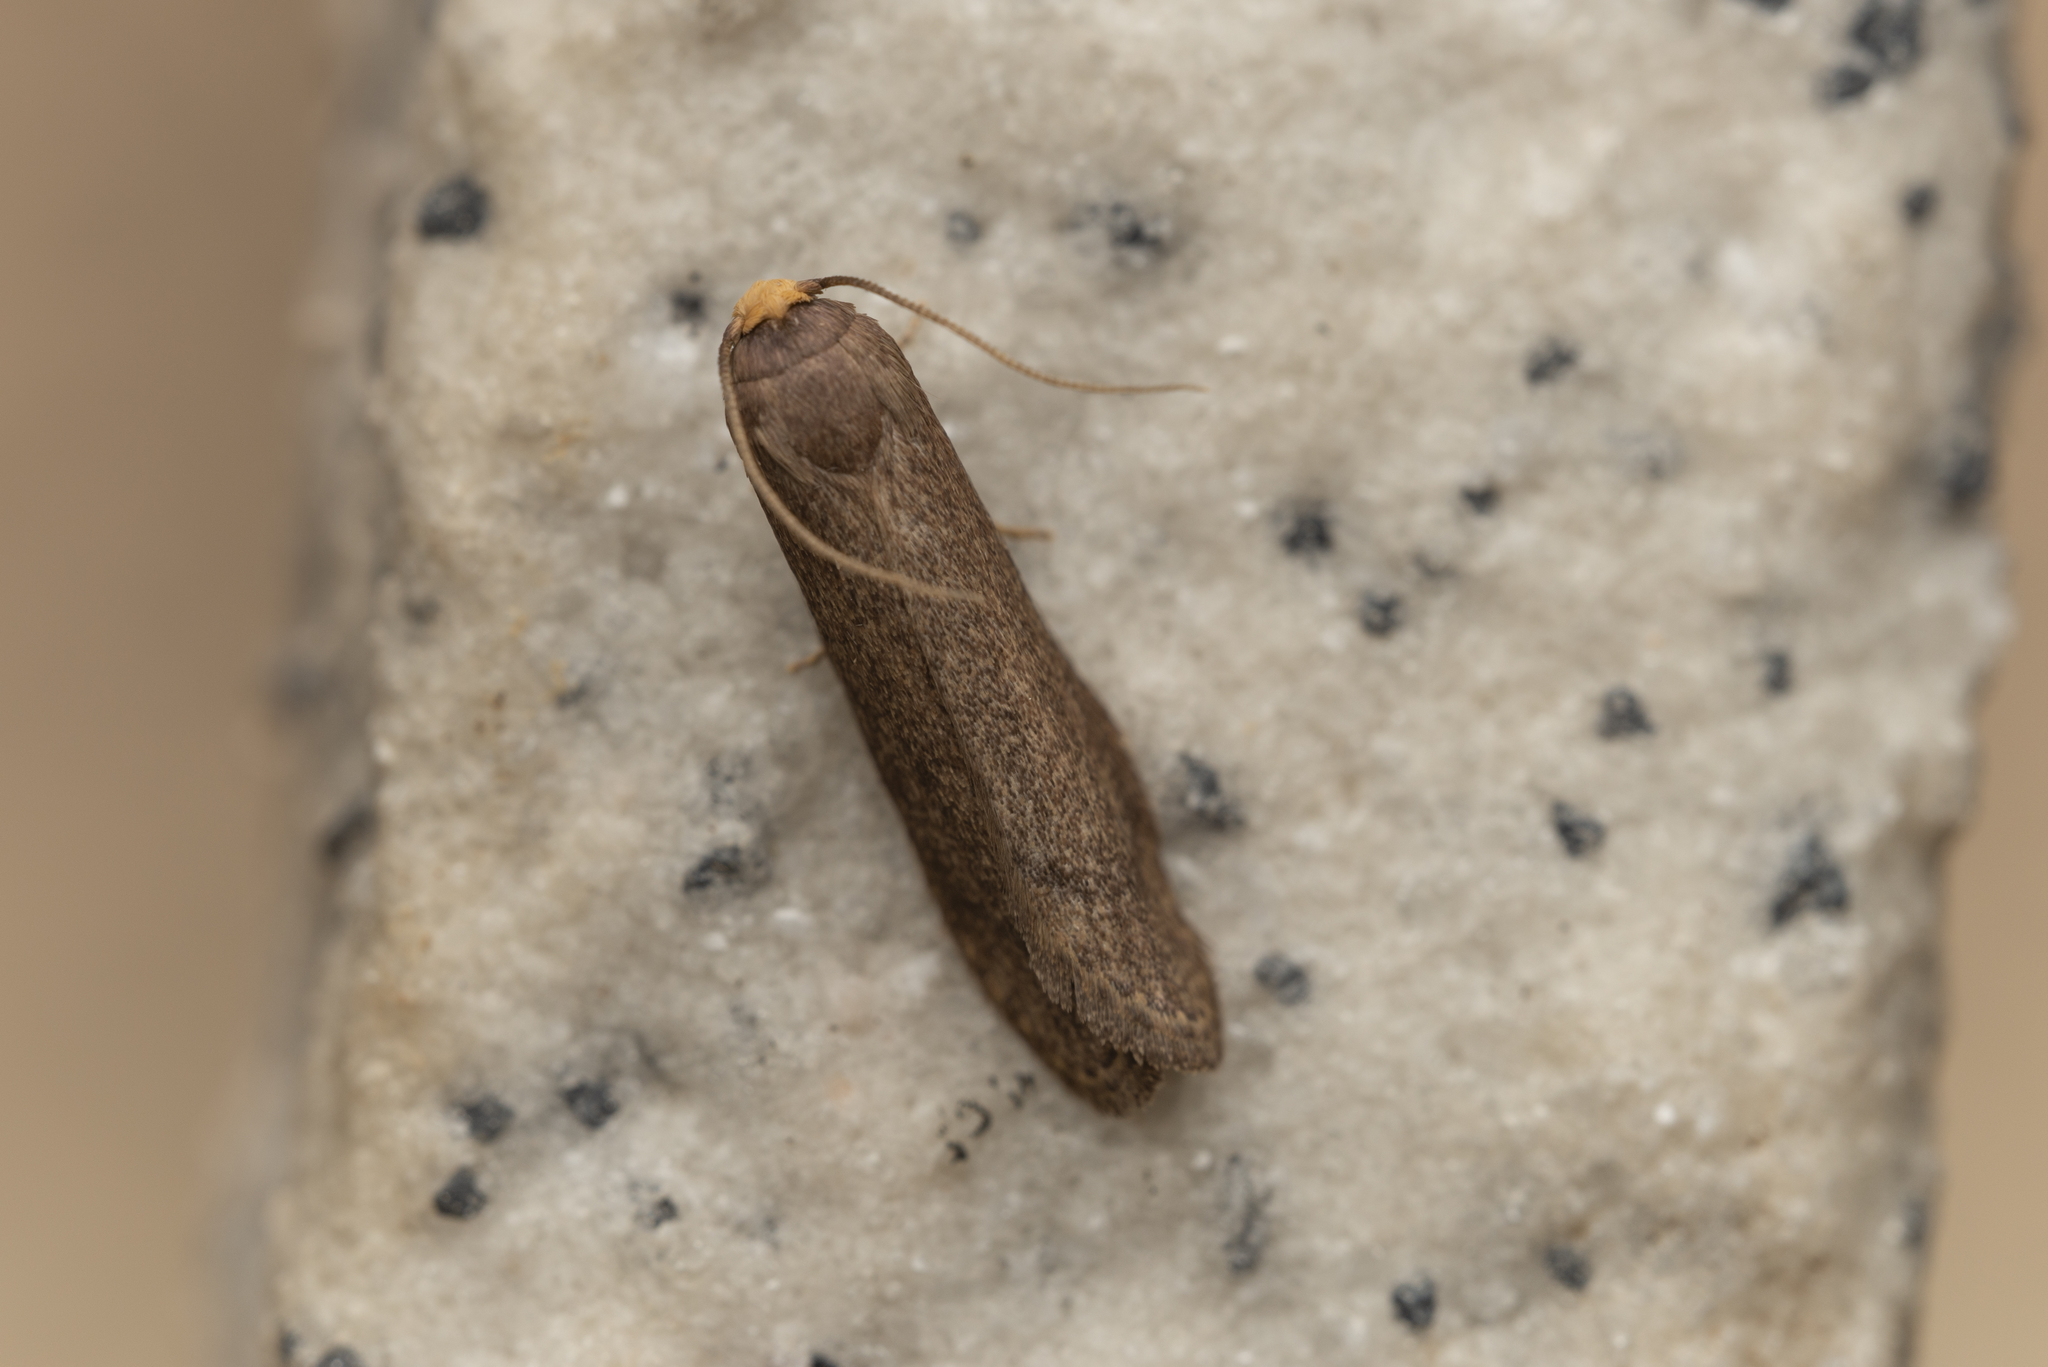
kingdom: Animalia
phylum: Arthropoda
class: Insecta
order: Lepidoptera
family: Pyralidae
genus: Achroia
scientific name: Achroia innotata
